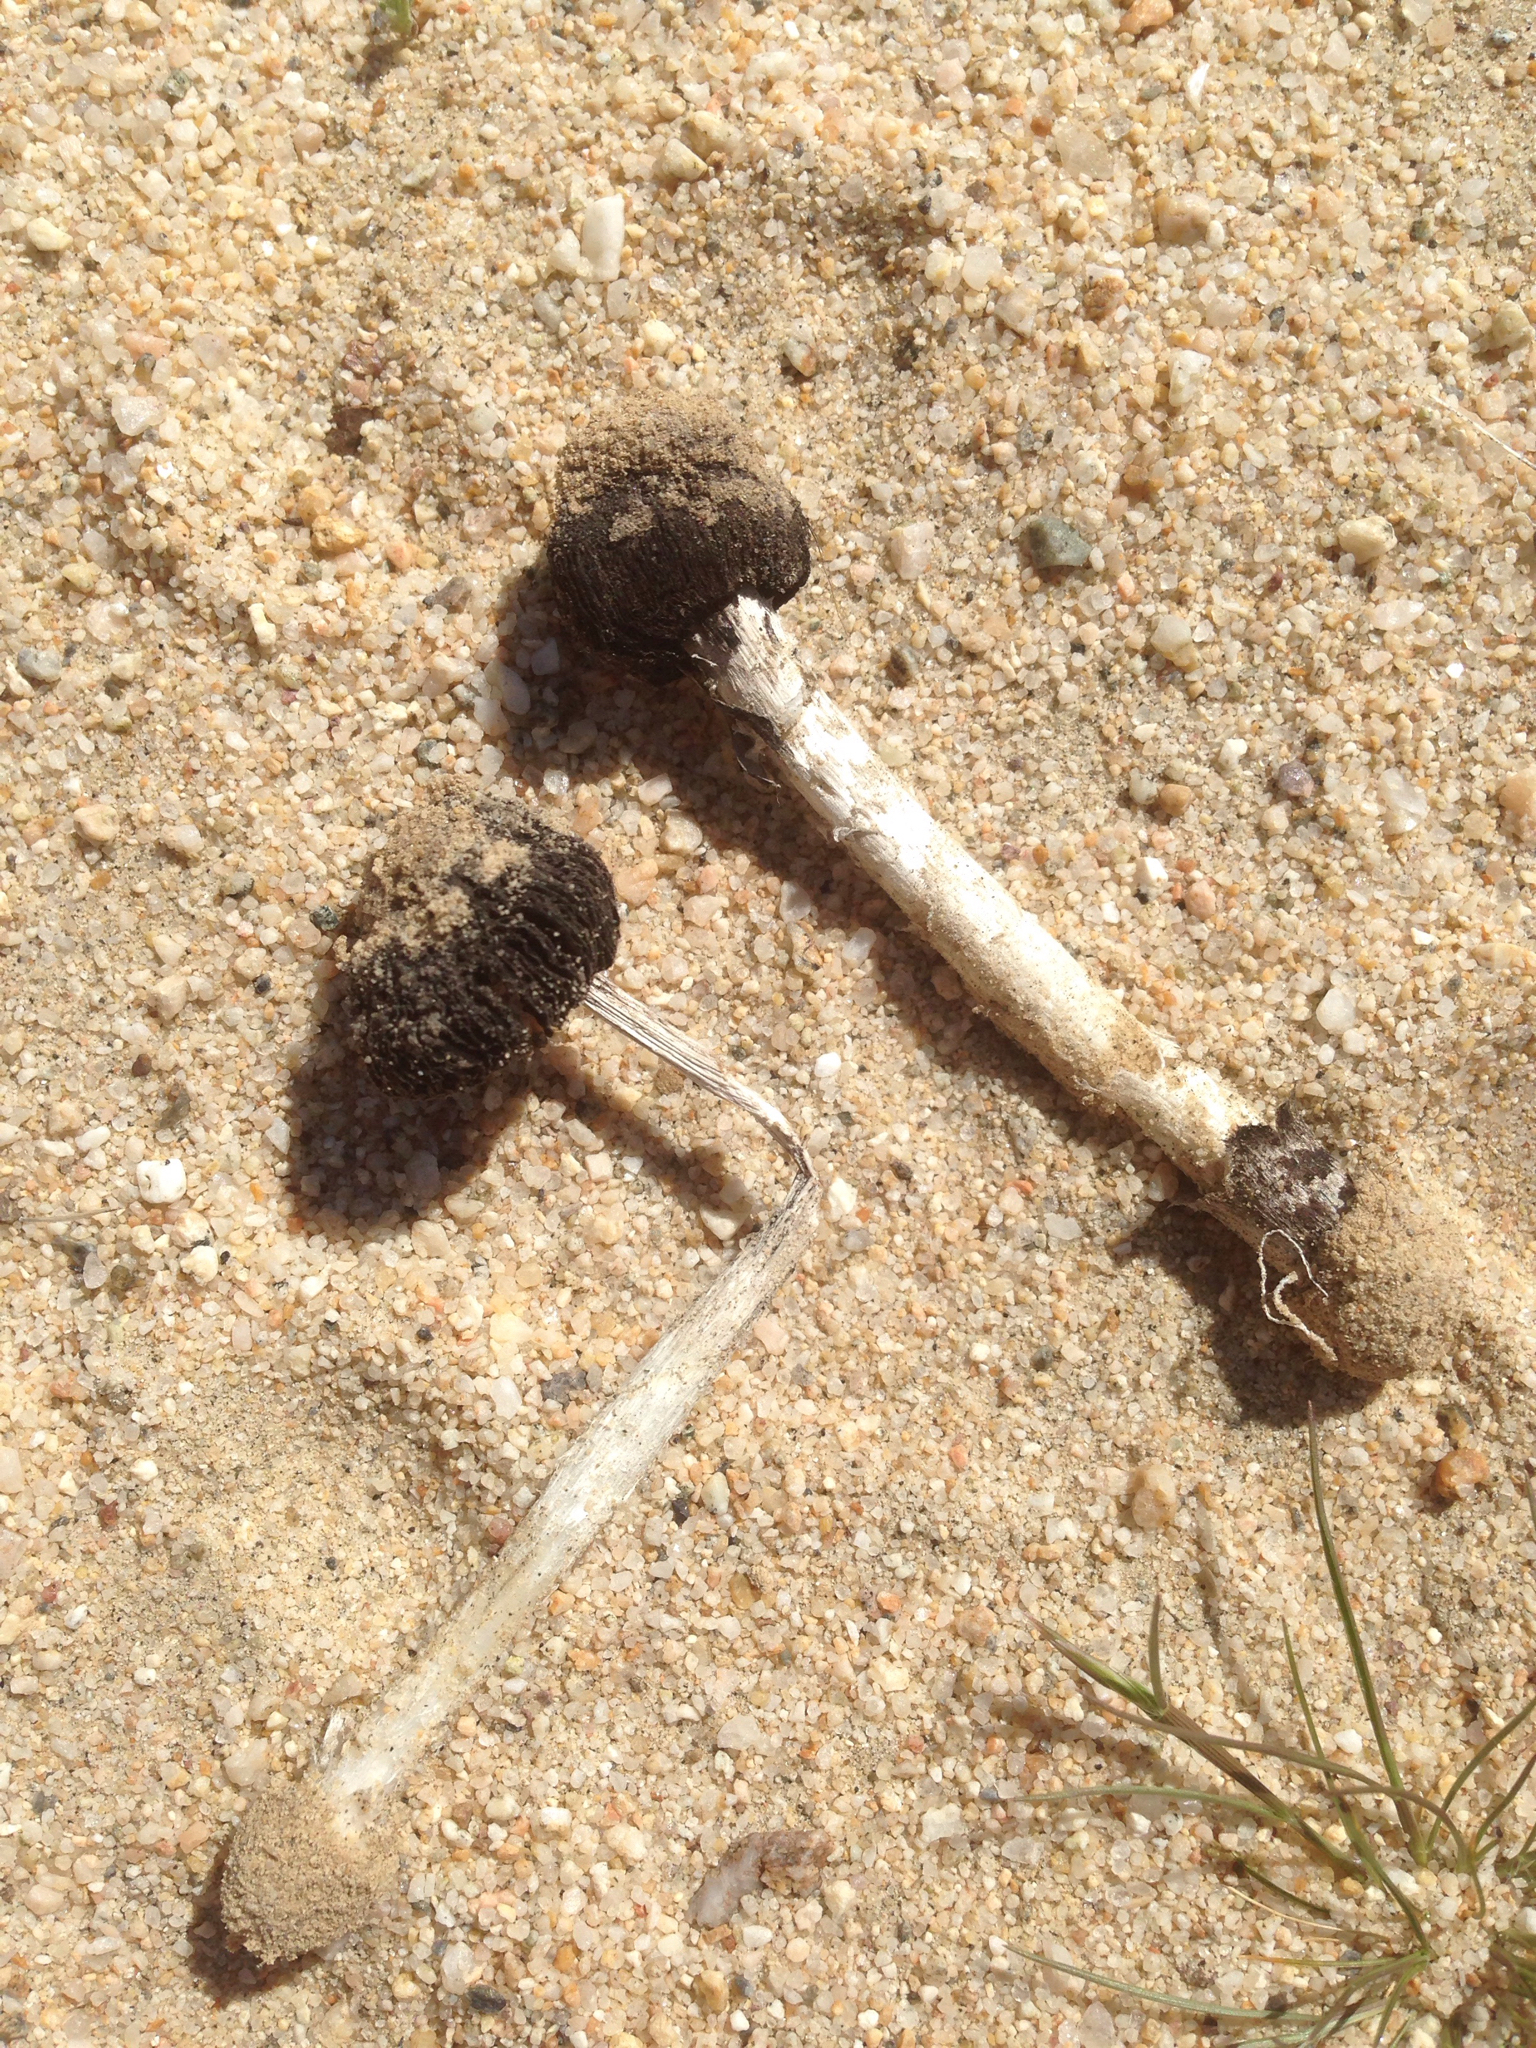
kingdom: Fungi
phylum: Basidiomycota
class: Agaricomycetes
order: Agaricales
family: Agaricaceae
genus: Montagnea
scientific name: Montagnea arenaria
